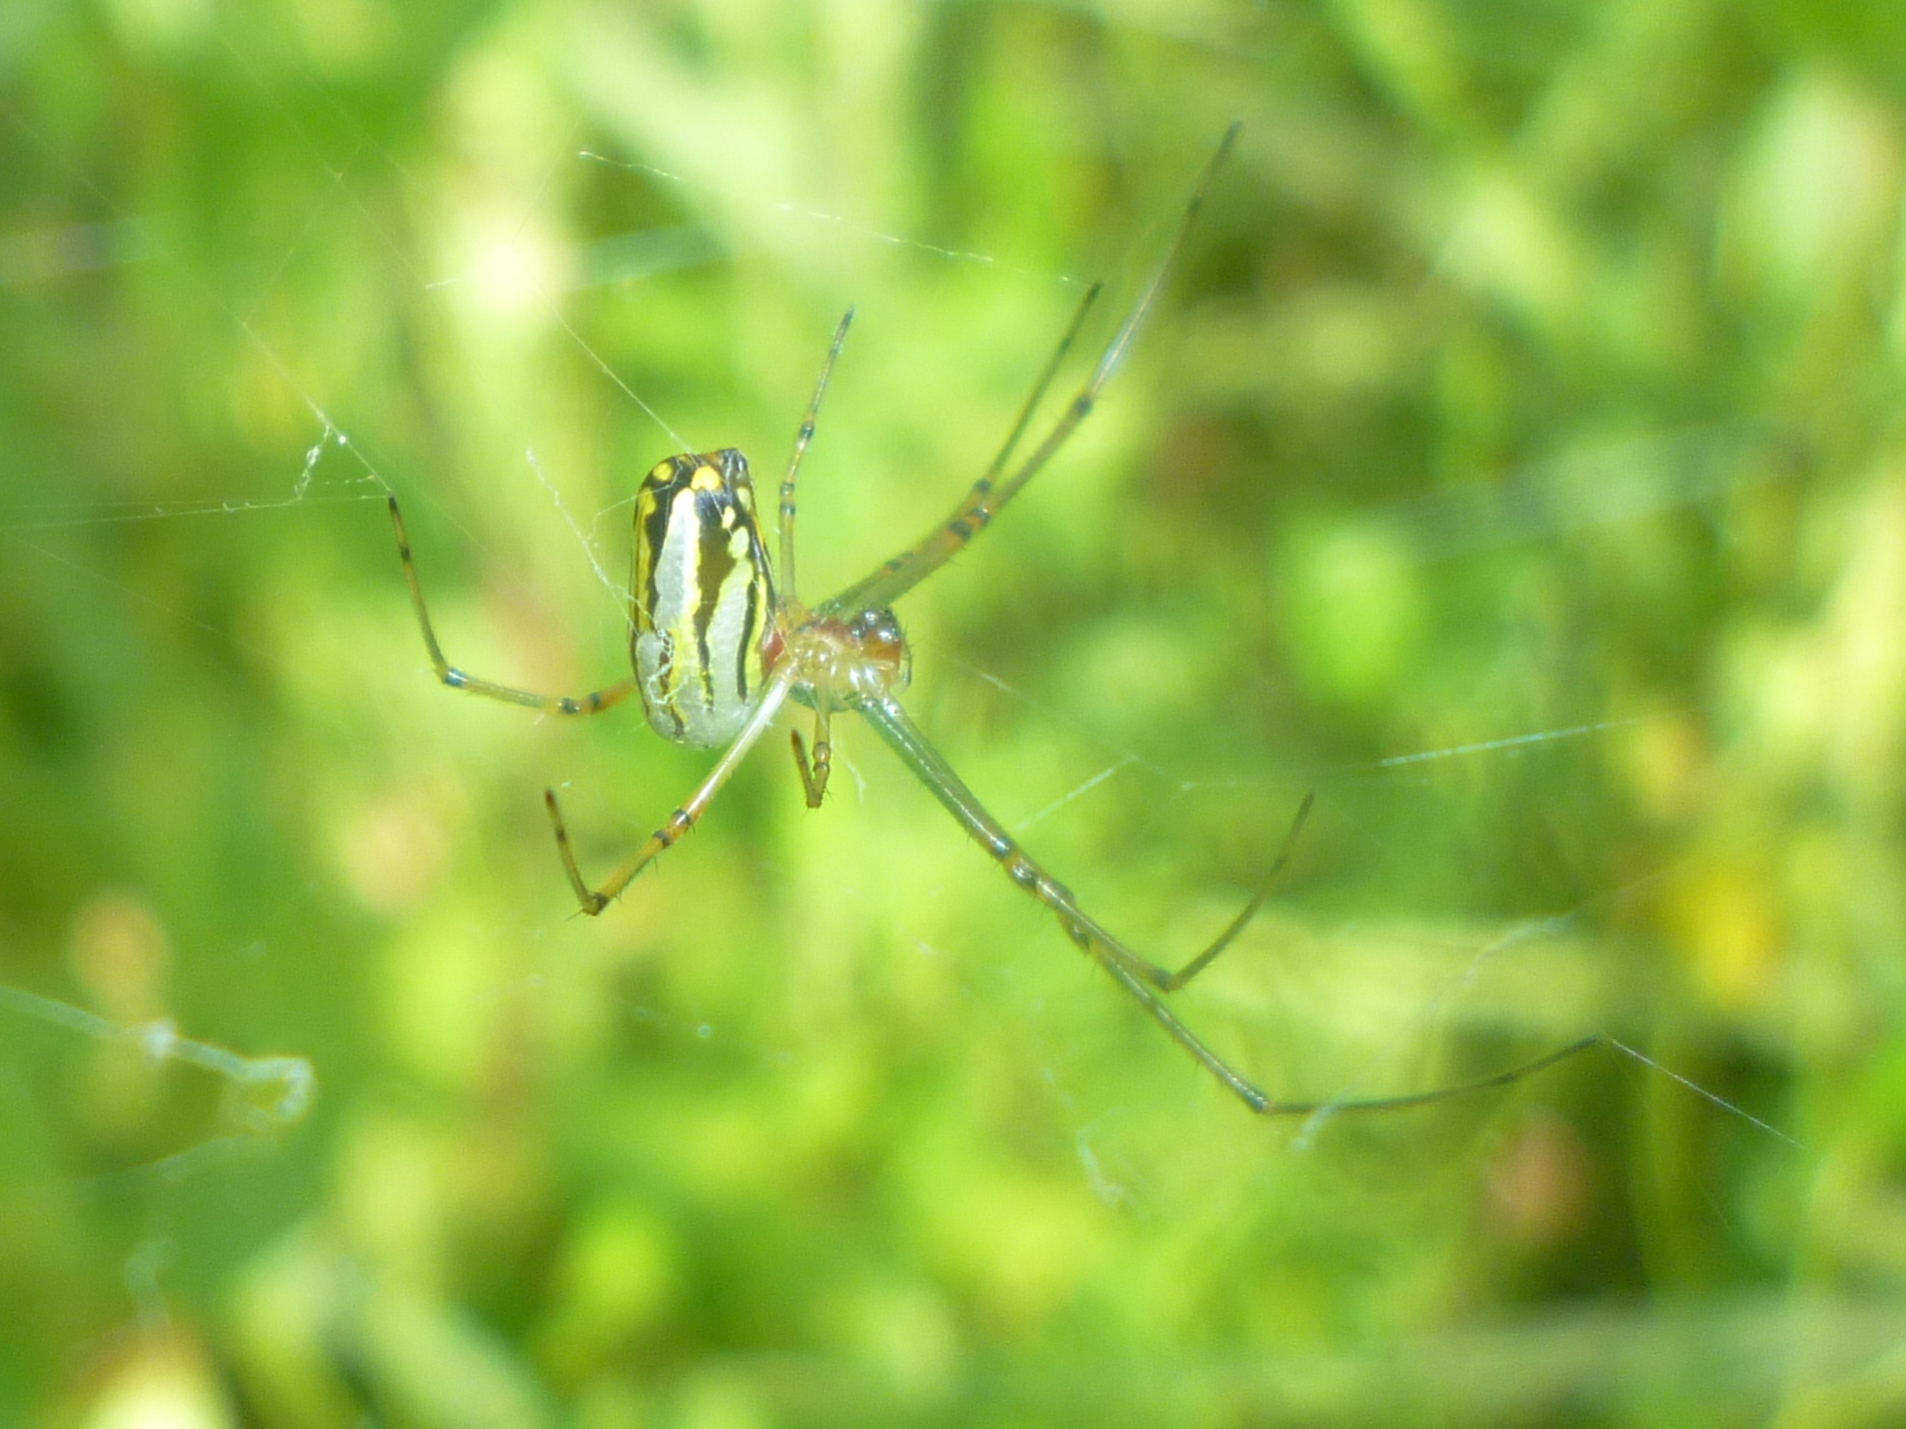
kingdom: Animalia
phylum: Arthropoda
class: Arachnida
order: Araneae
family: Tetragnathidae
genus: Leucauge
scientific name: Leucauge argyra
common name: Longjawed orb weavers
